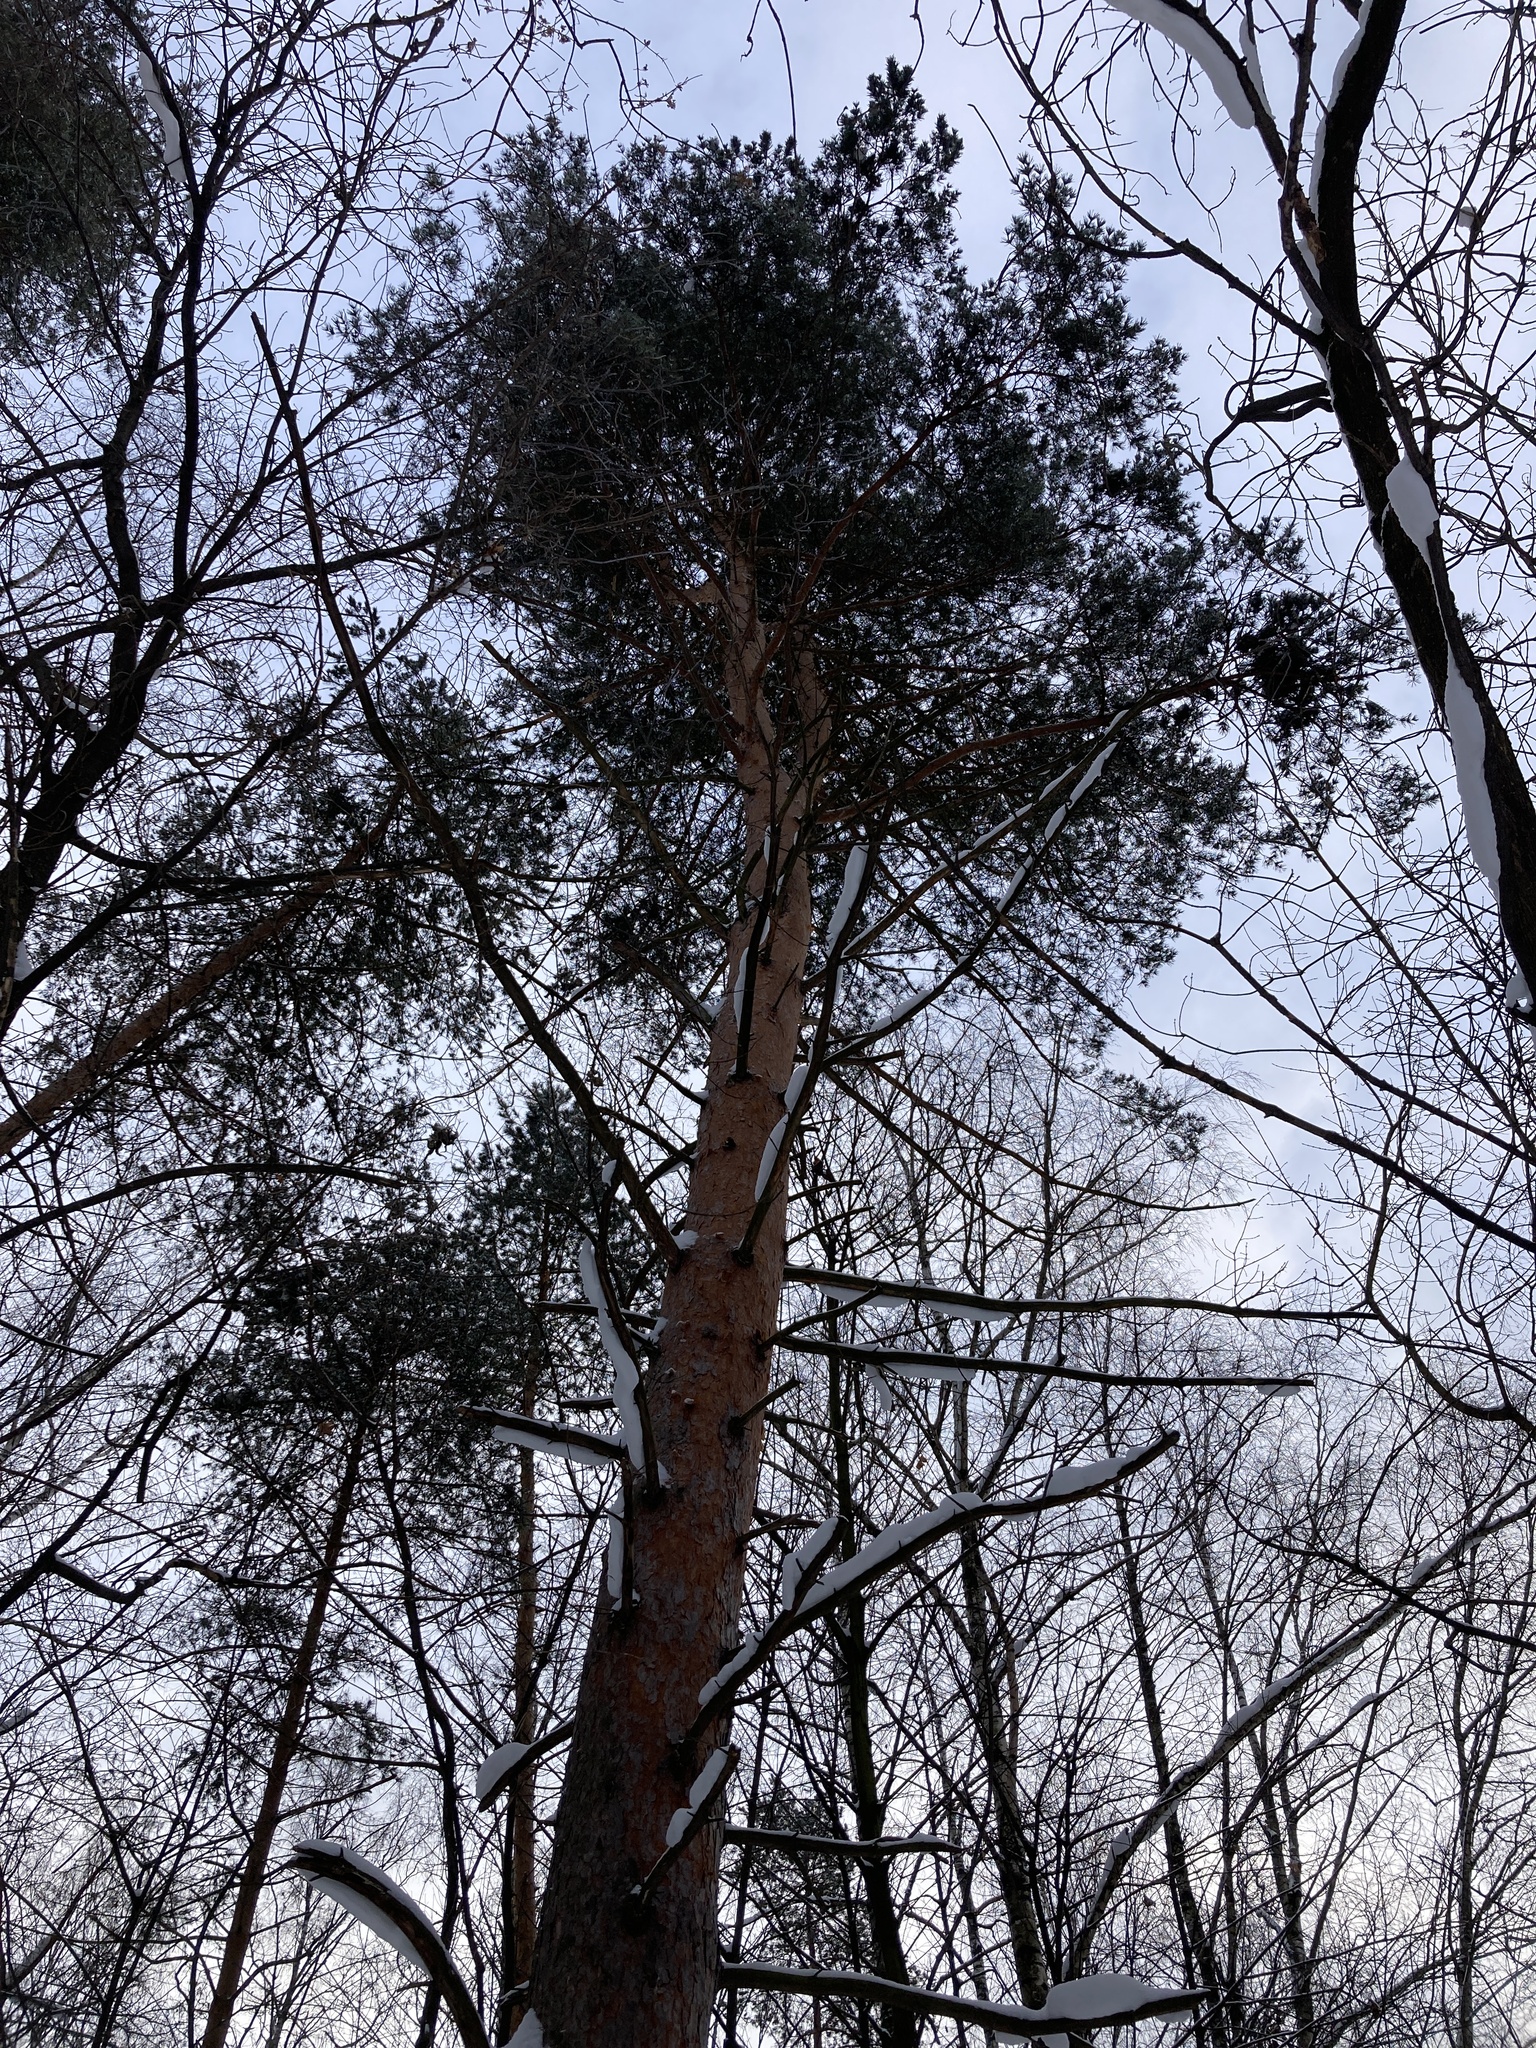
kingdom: Plantae
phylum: Tracheophyta
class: Pinopsida
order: Pinales
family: Pinaceae
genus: Pinus
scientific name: Pinus sylvestris
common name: Scots pine
